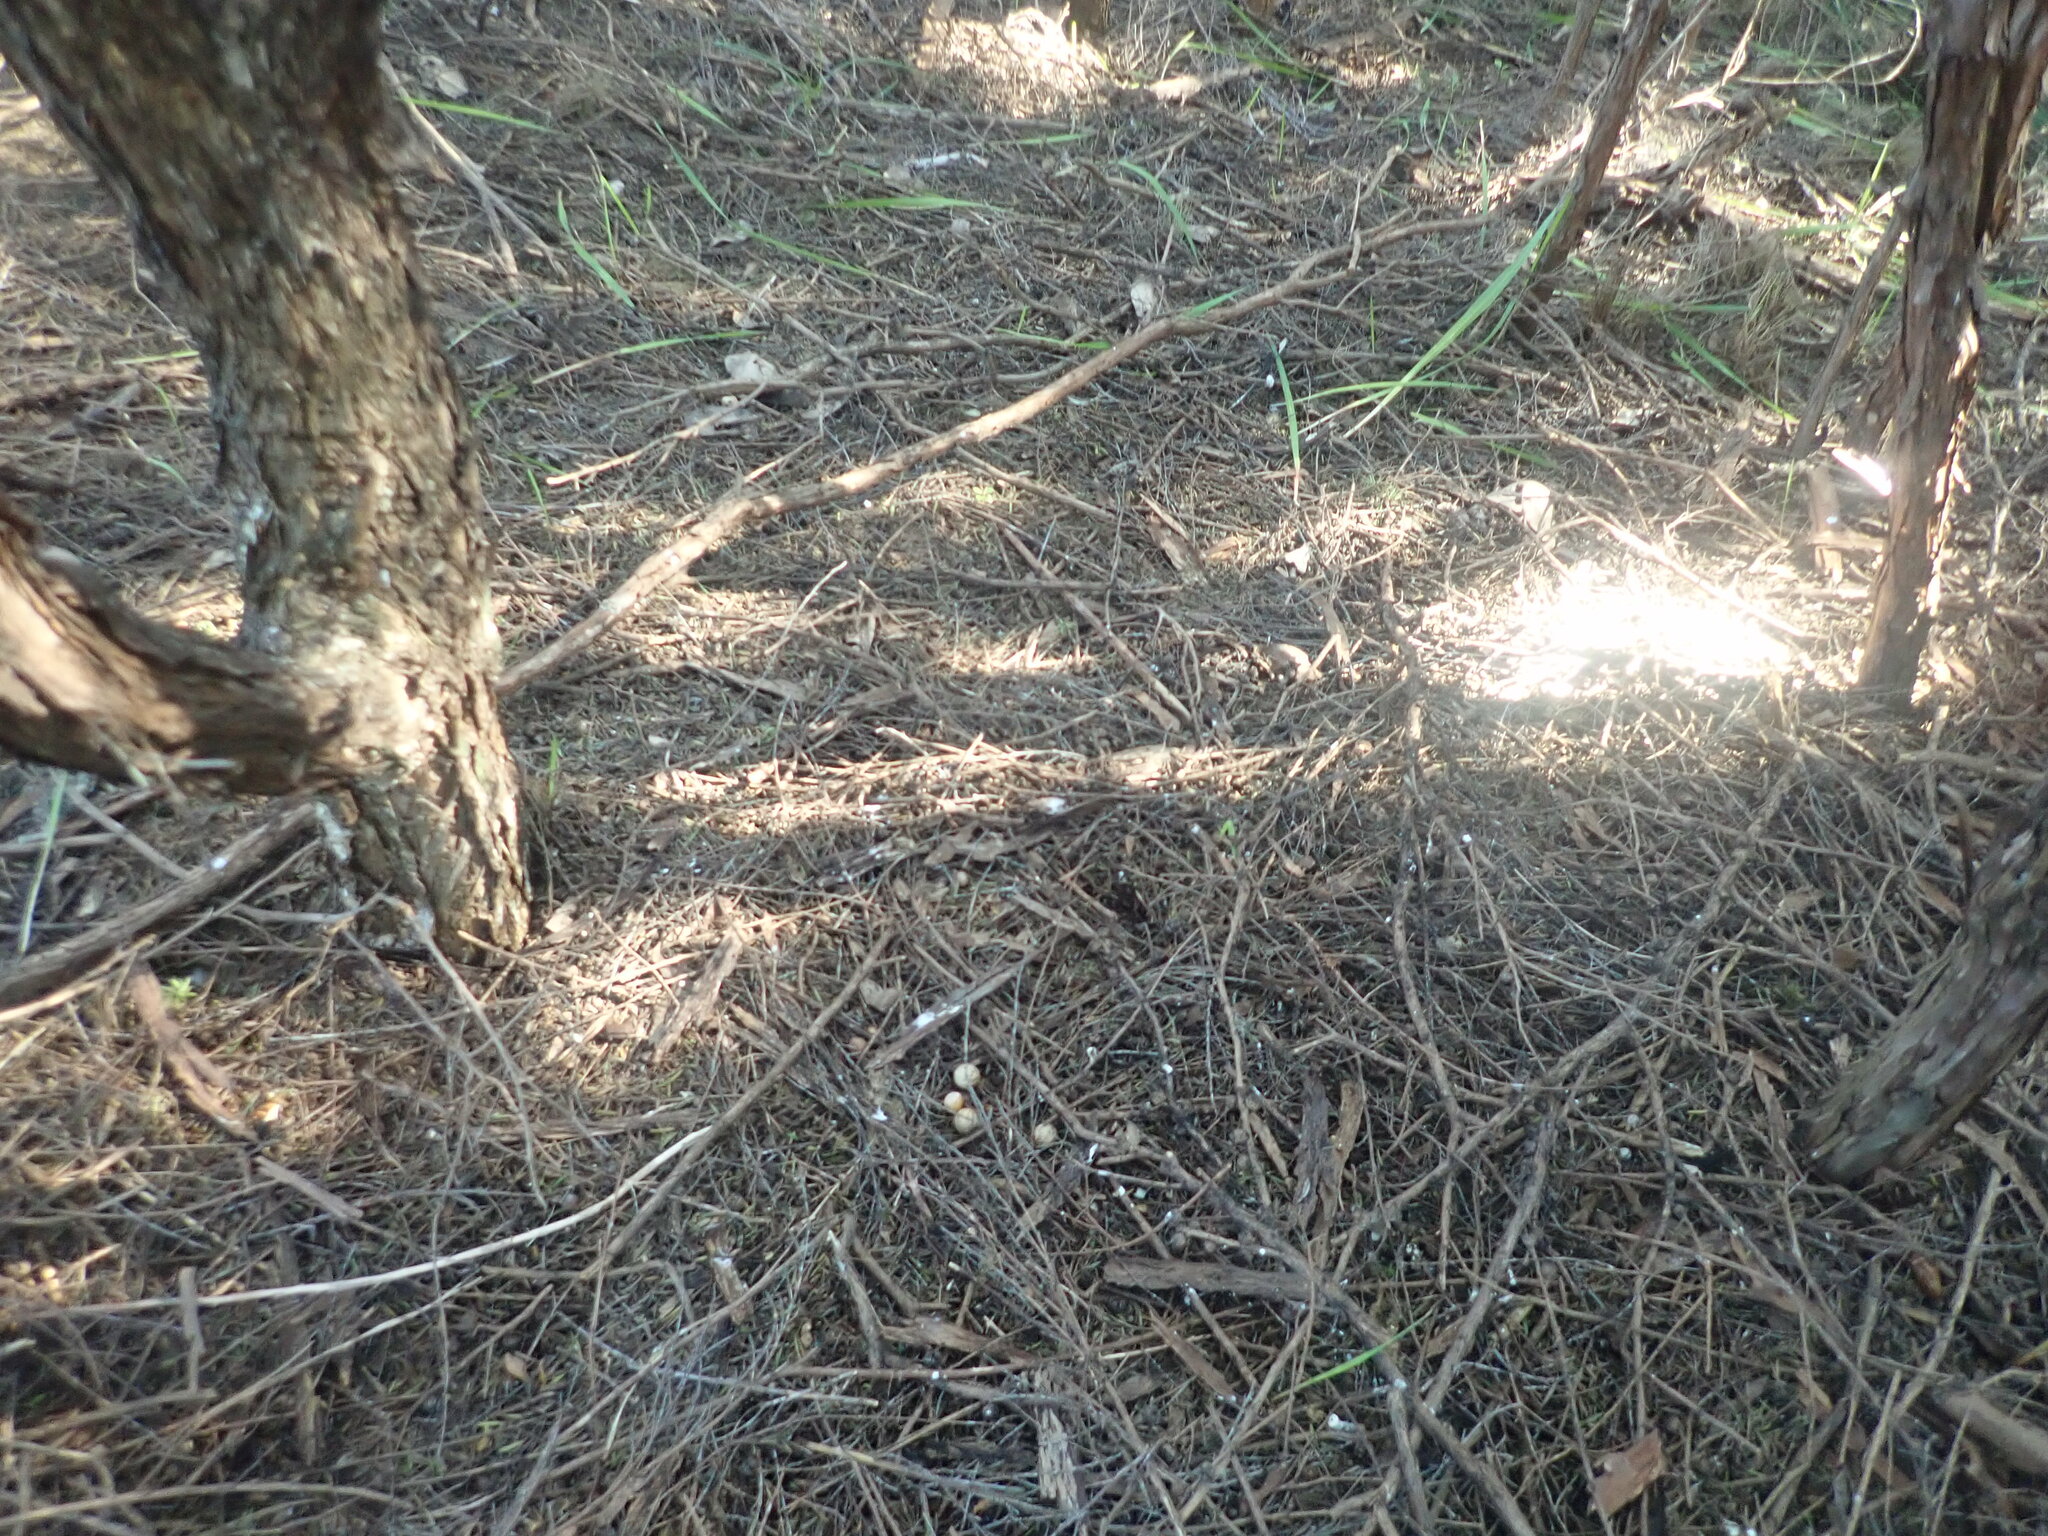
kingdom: Plantae
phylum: Tracheophyta
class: Liliopsida
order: Arecales
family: Arecaceae
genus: Archontophoenix
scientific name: Archontophoenix cunninghamiana
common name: Piccabeen bangalow palm
